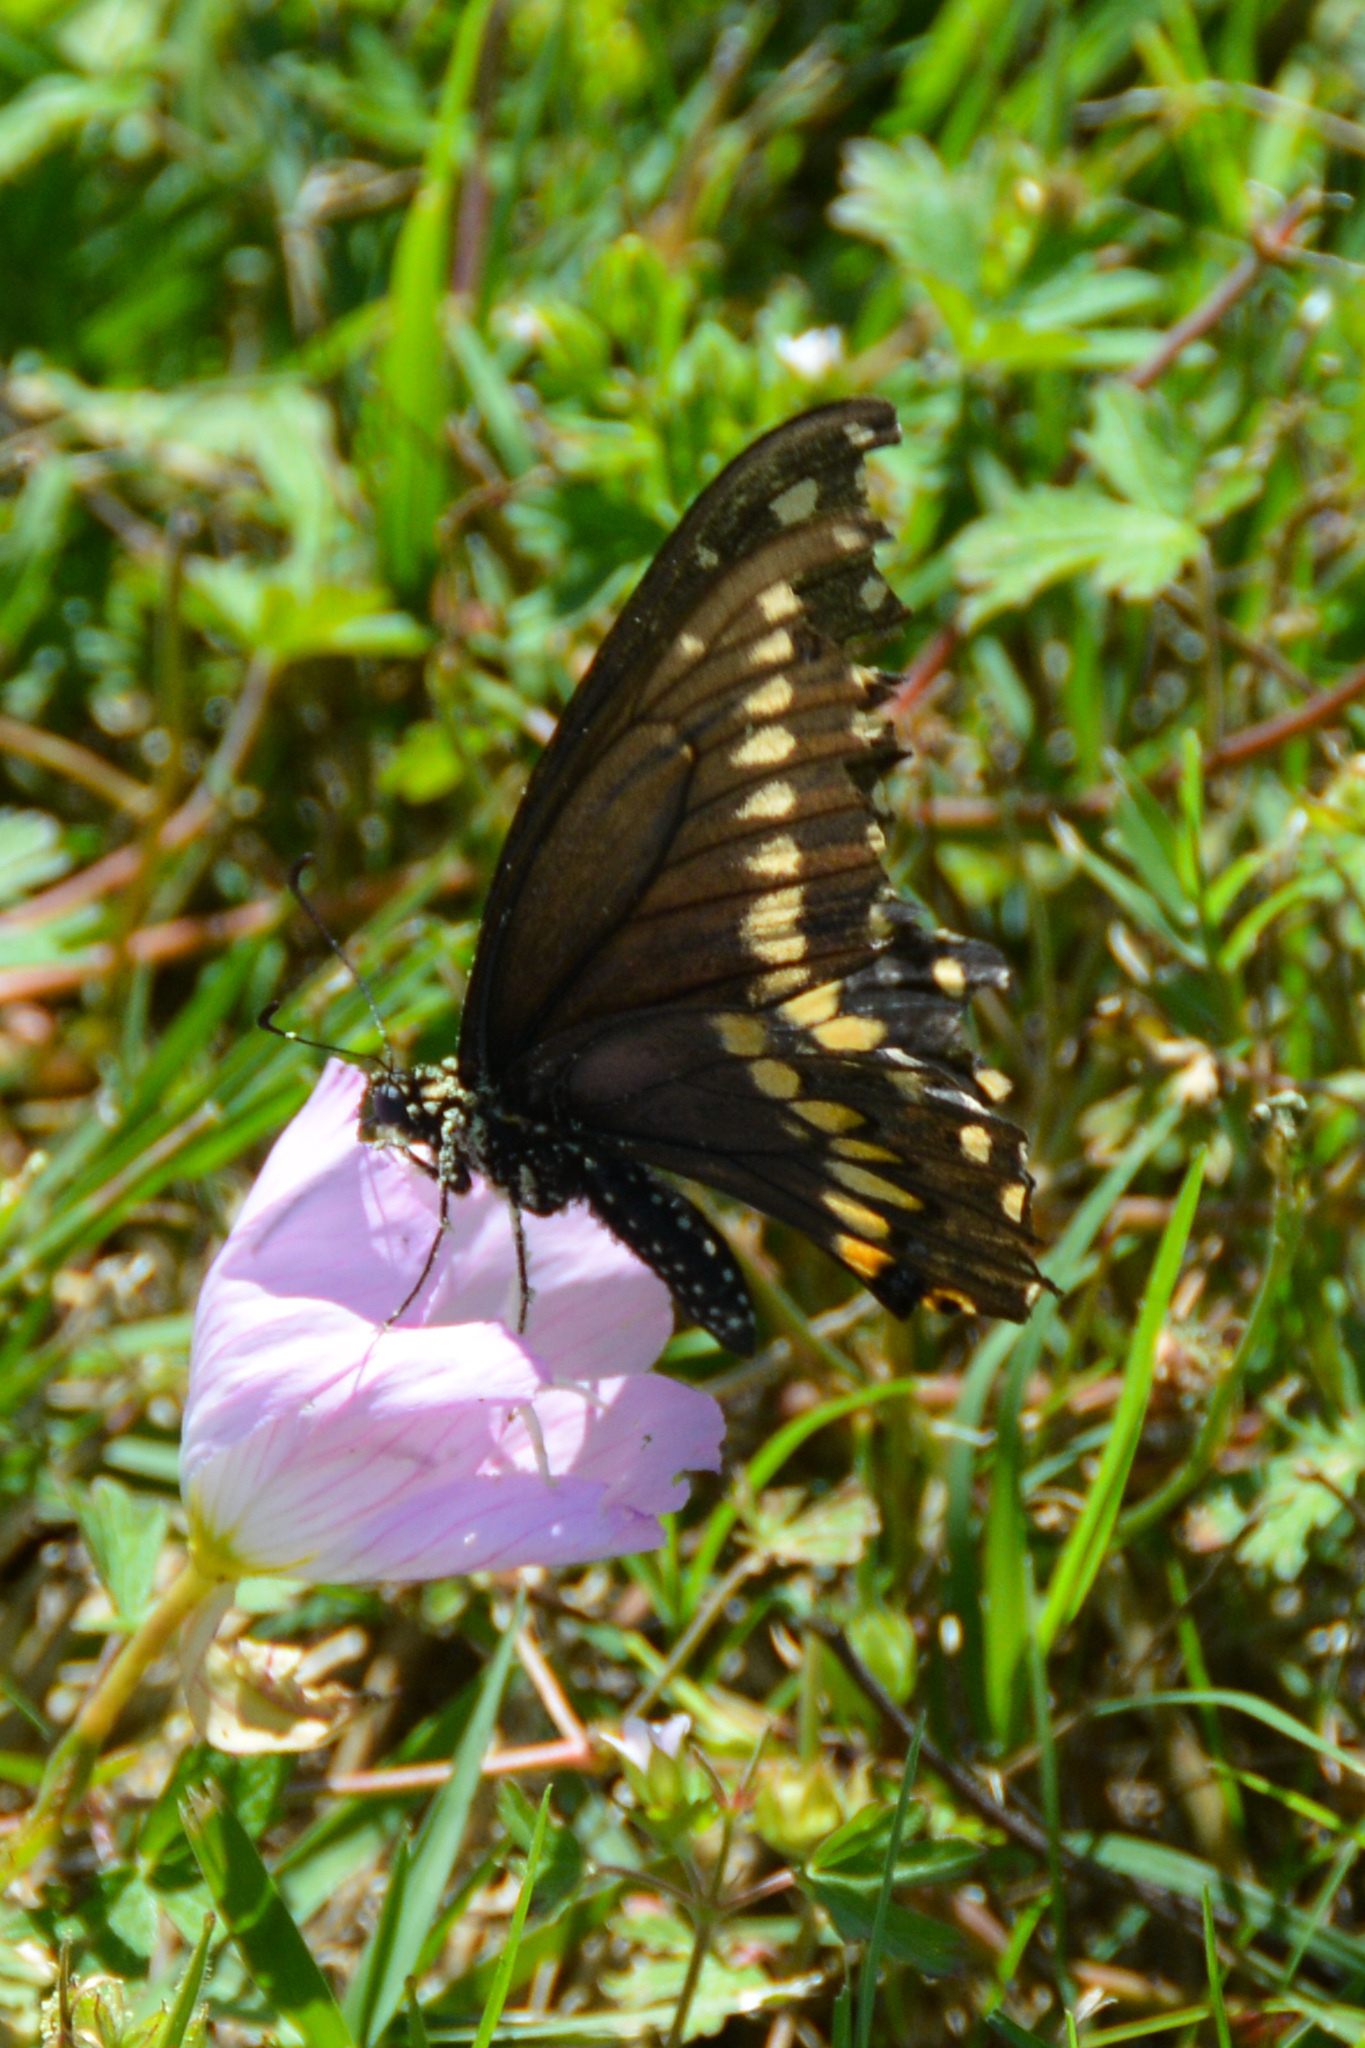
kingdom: Animalia
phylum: Arthropoda
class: Insecta
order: Lepidoptera
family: Papilionidae
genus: Papilio
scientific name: Papilio polyxenes
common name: Black swallowtail
